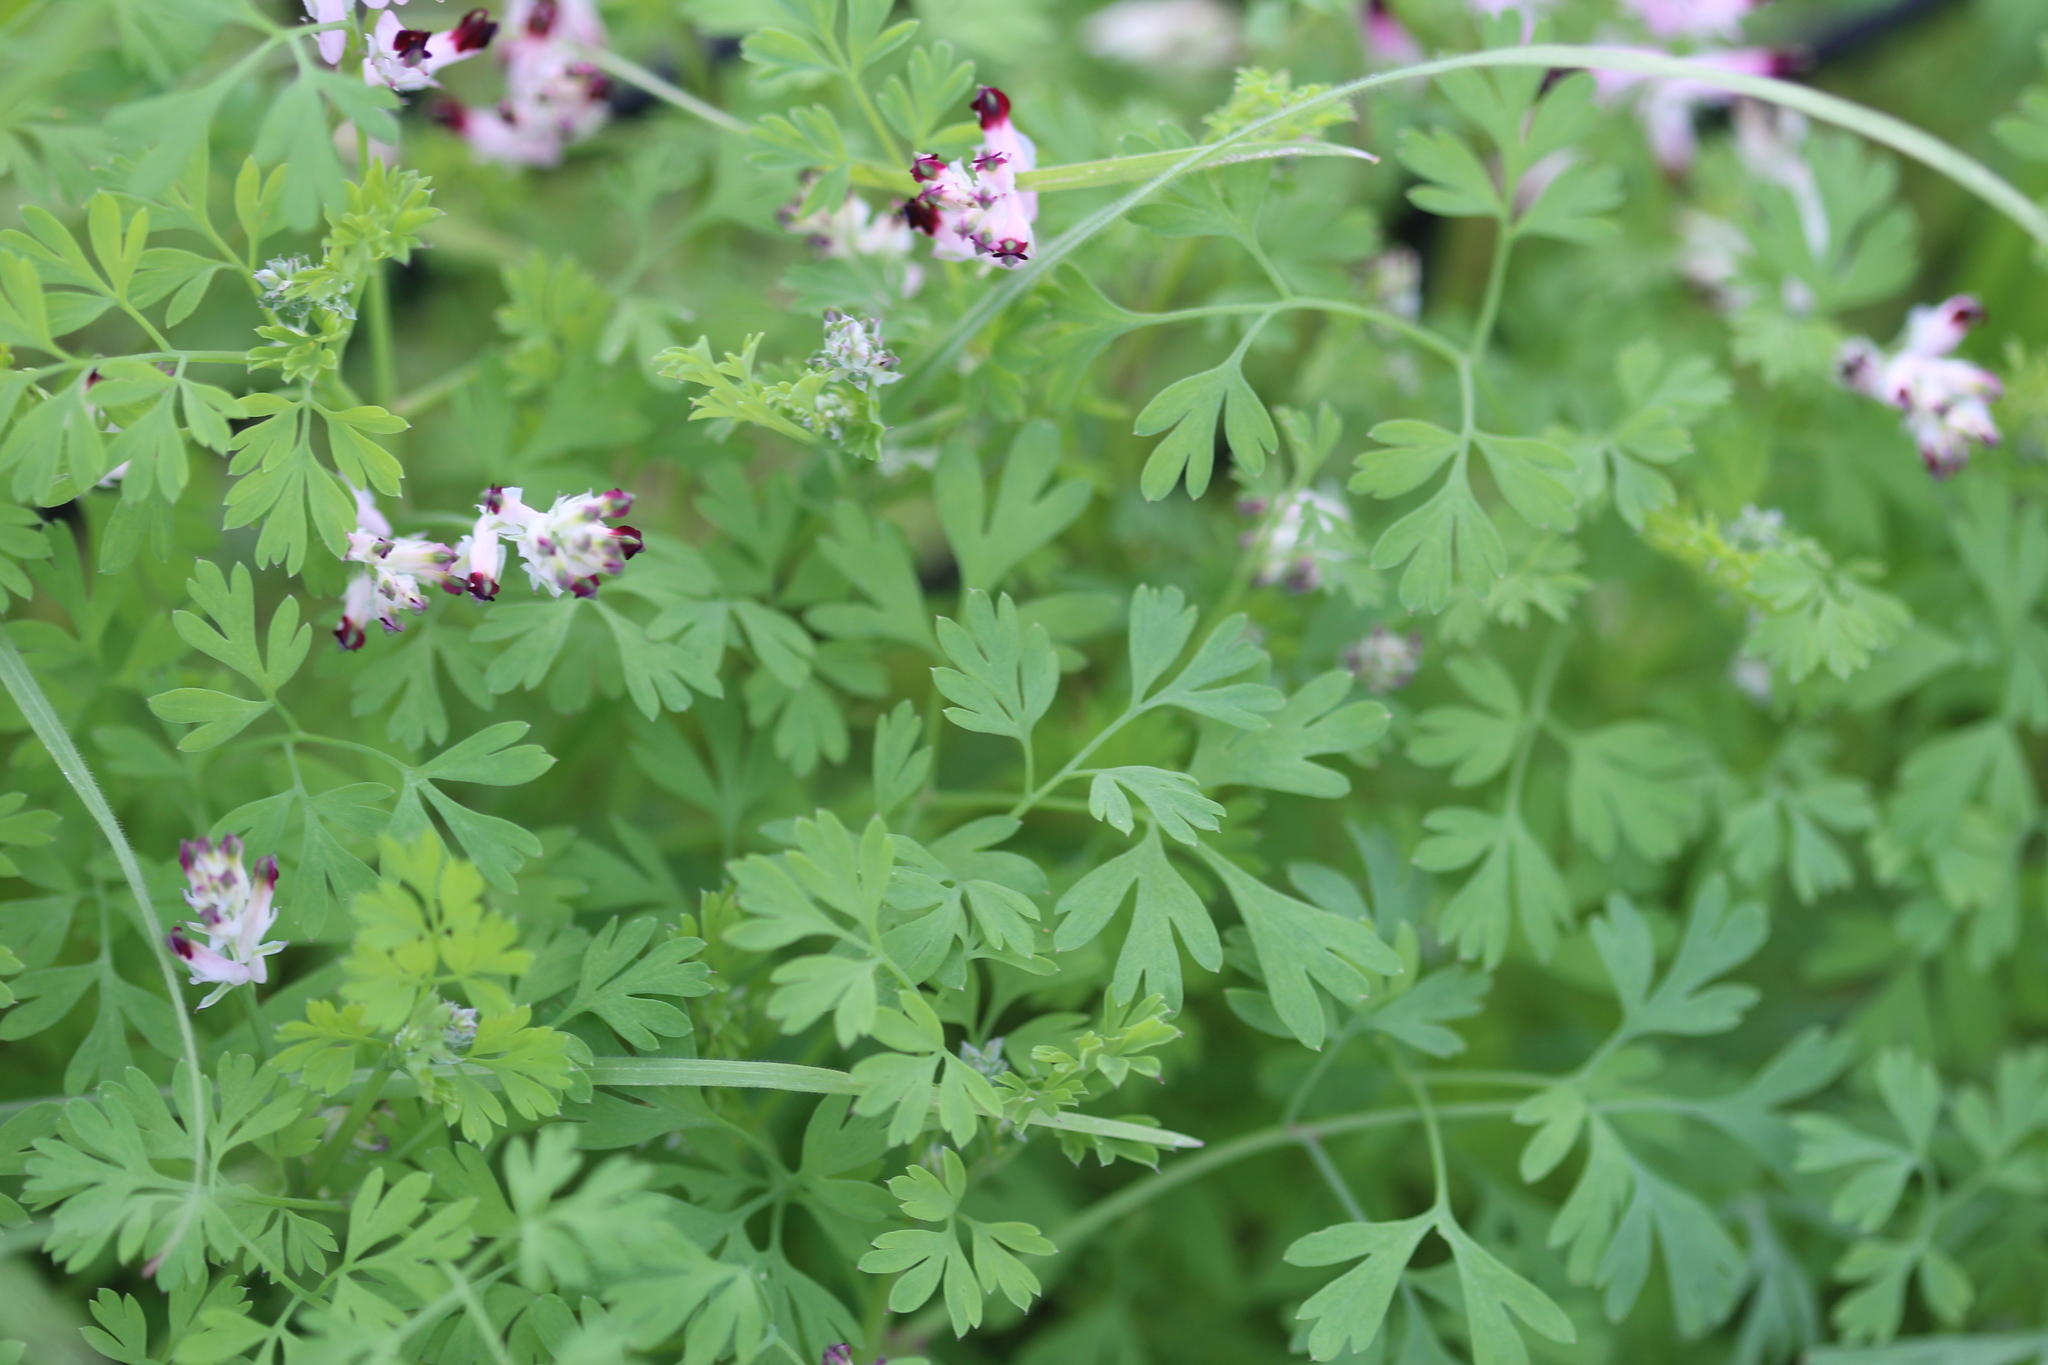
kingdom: Plantae
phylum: Tracheophyta
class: Magnoliopsida
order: Ranunculales
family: Papaveraceae
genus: Fumaria
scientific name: Fumaria muralis
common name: Common ramping-fumitory
